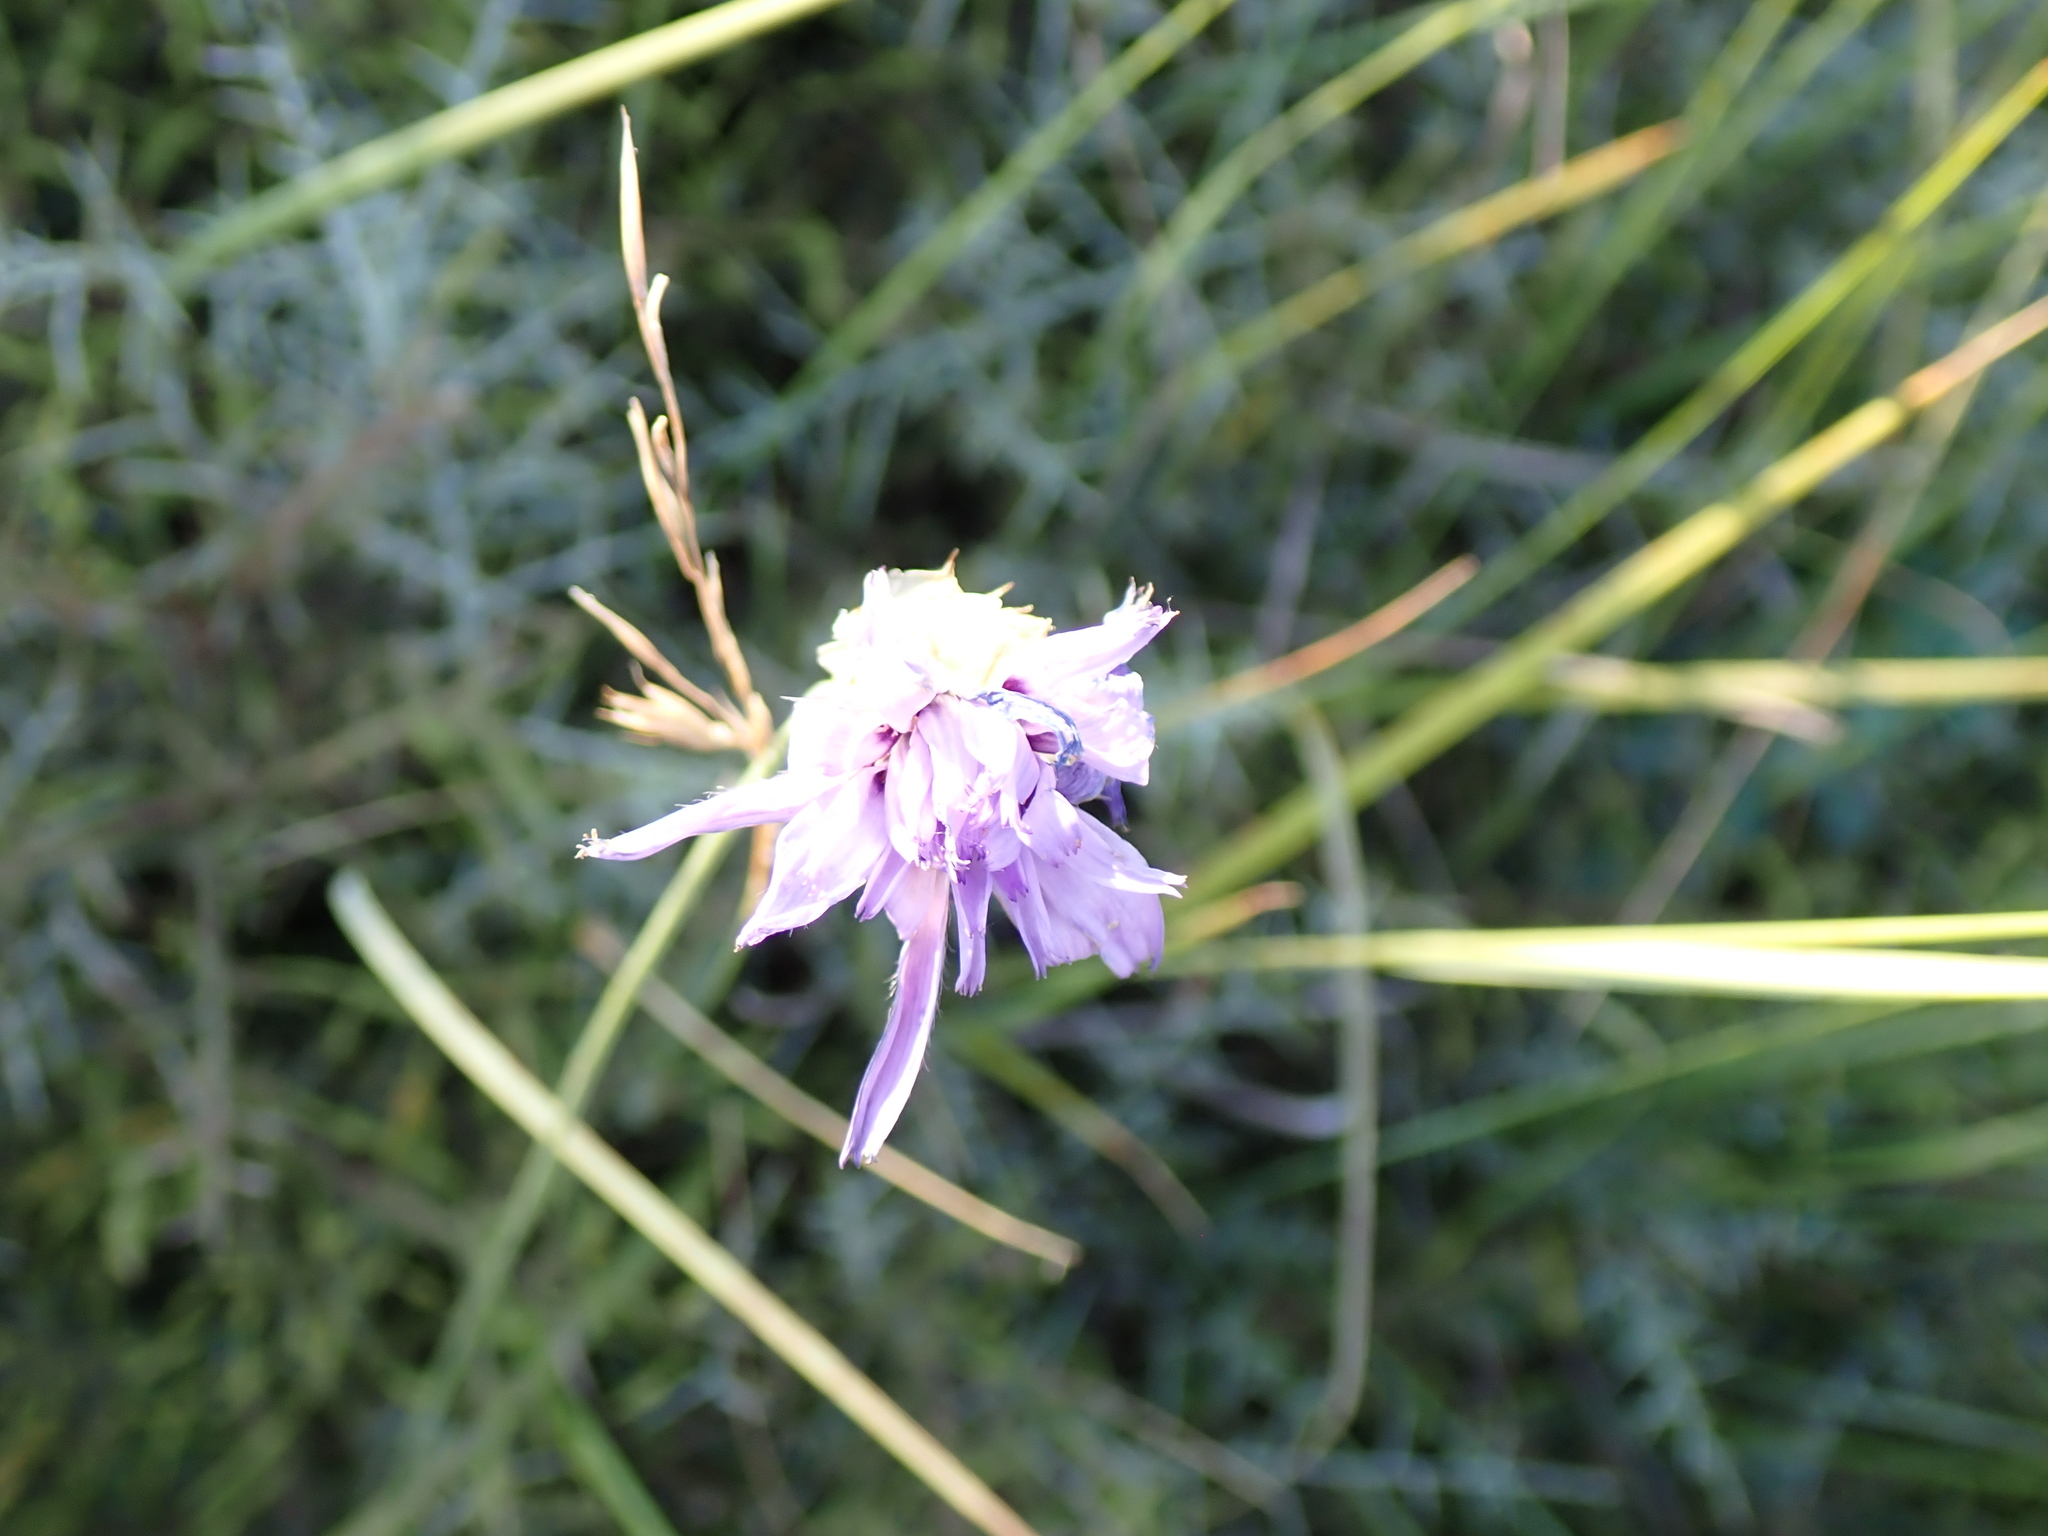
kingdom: Plantae
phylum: Tracheophyta
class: Magnoliopsida
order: Asterales
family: Asteraceae
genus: Catananche
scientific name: Catananche caerulea
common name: Blue cupidone
